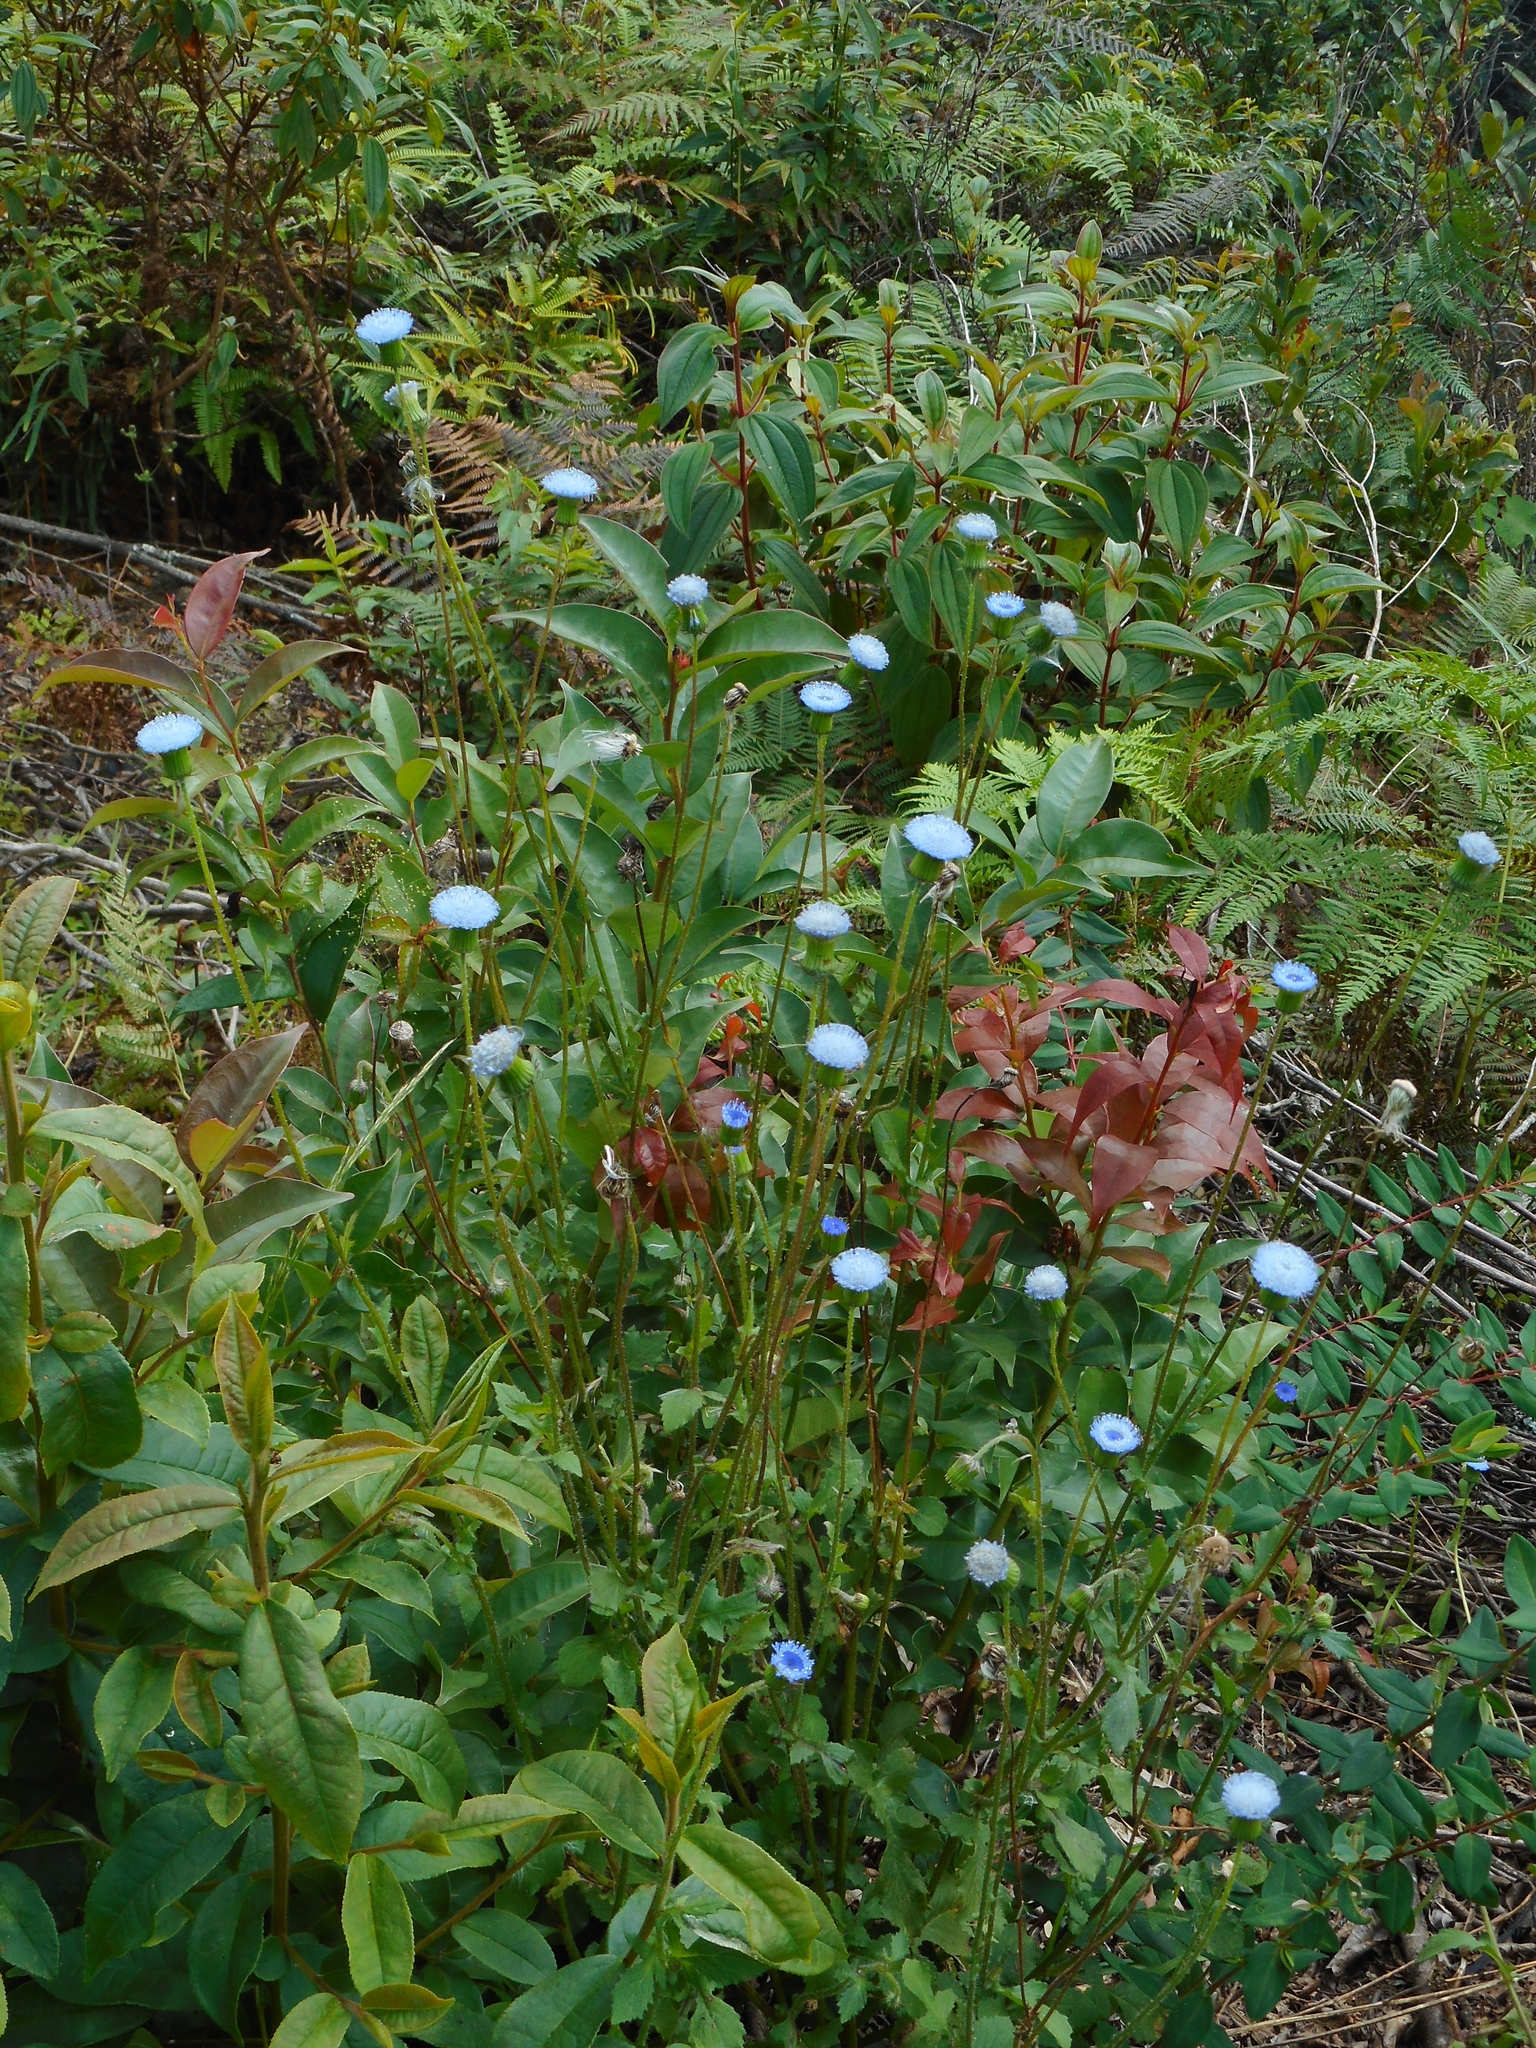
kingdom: Plantae
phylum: Tracheophyta
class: Magnoliopsida
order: Asterales
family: Asteraceae
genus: Crassocephalum
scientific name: Crassocephalum rubens
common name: Yoruban bologi
